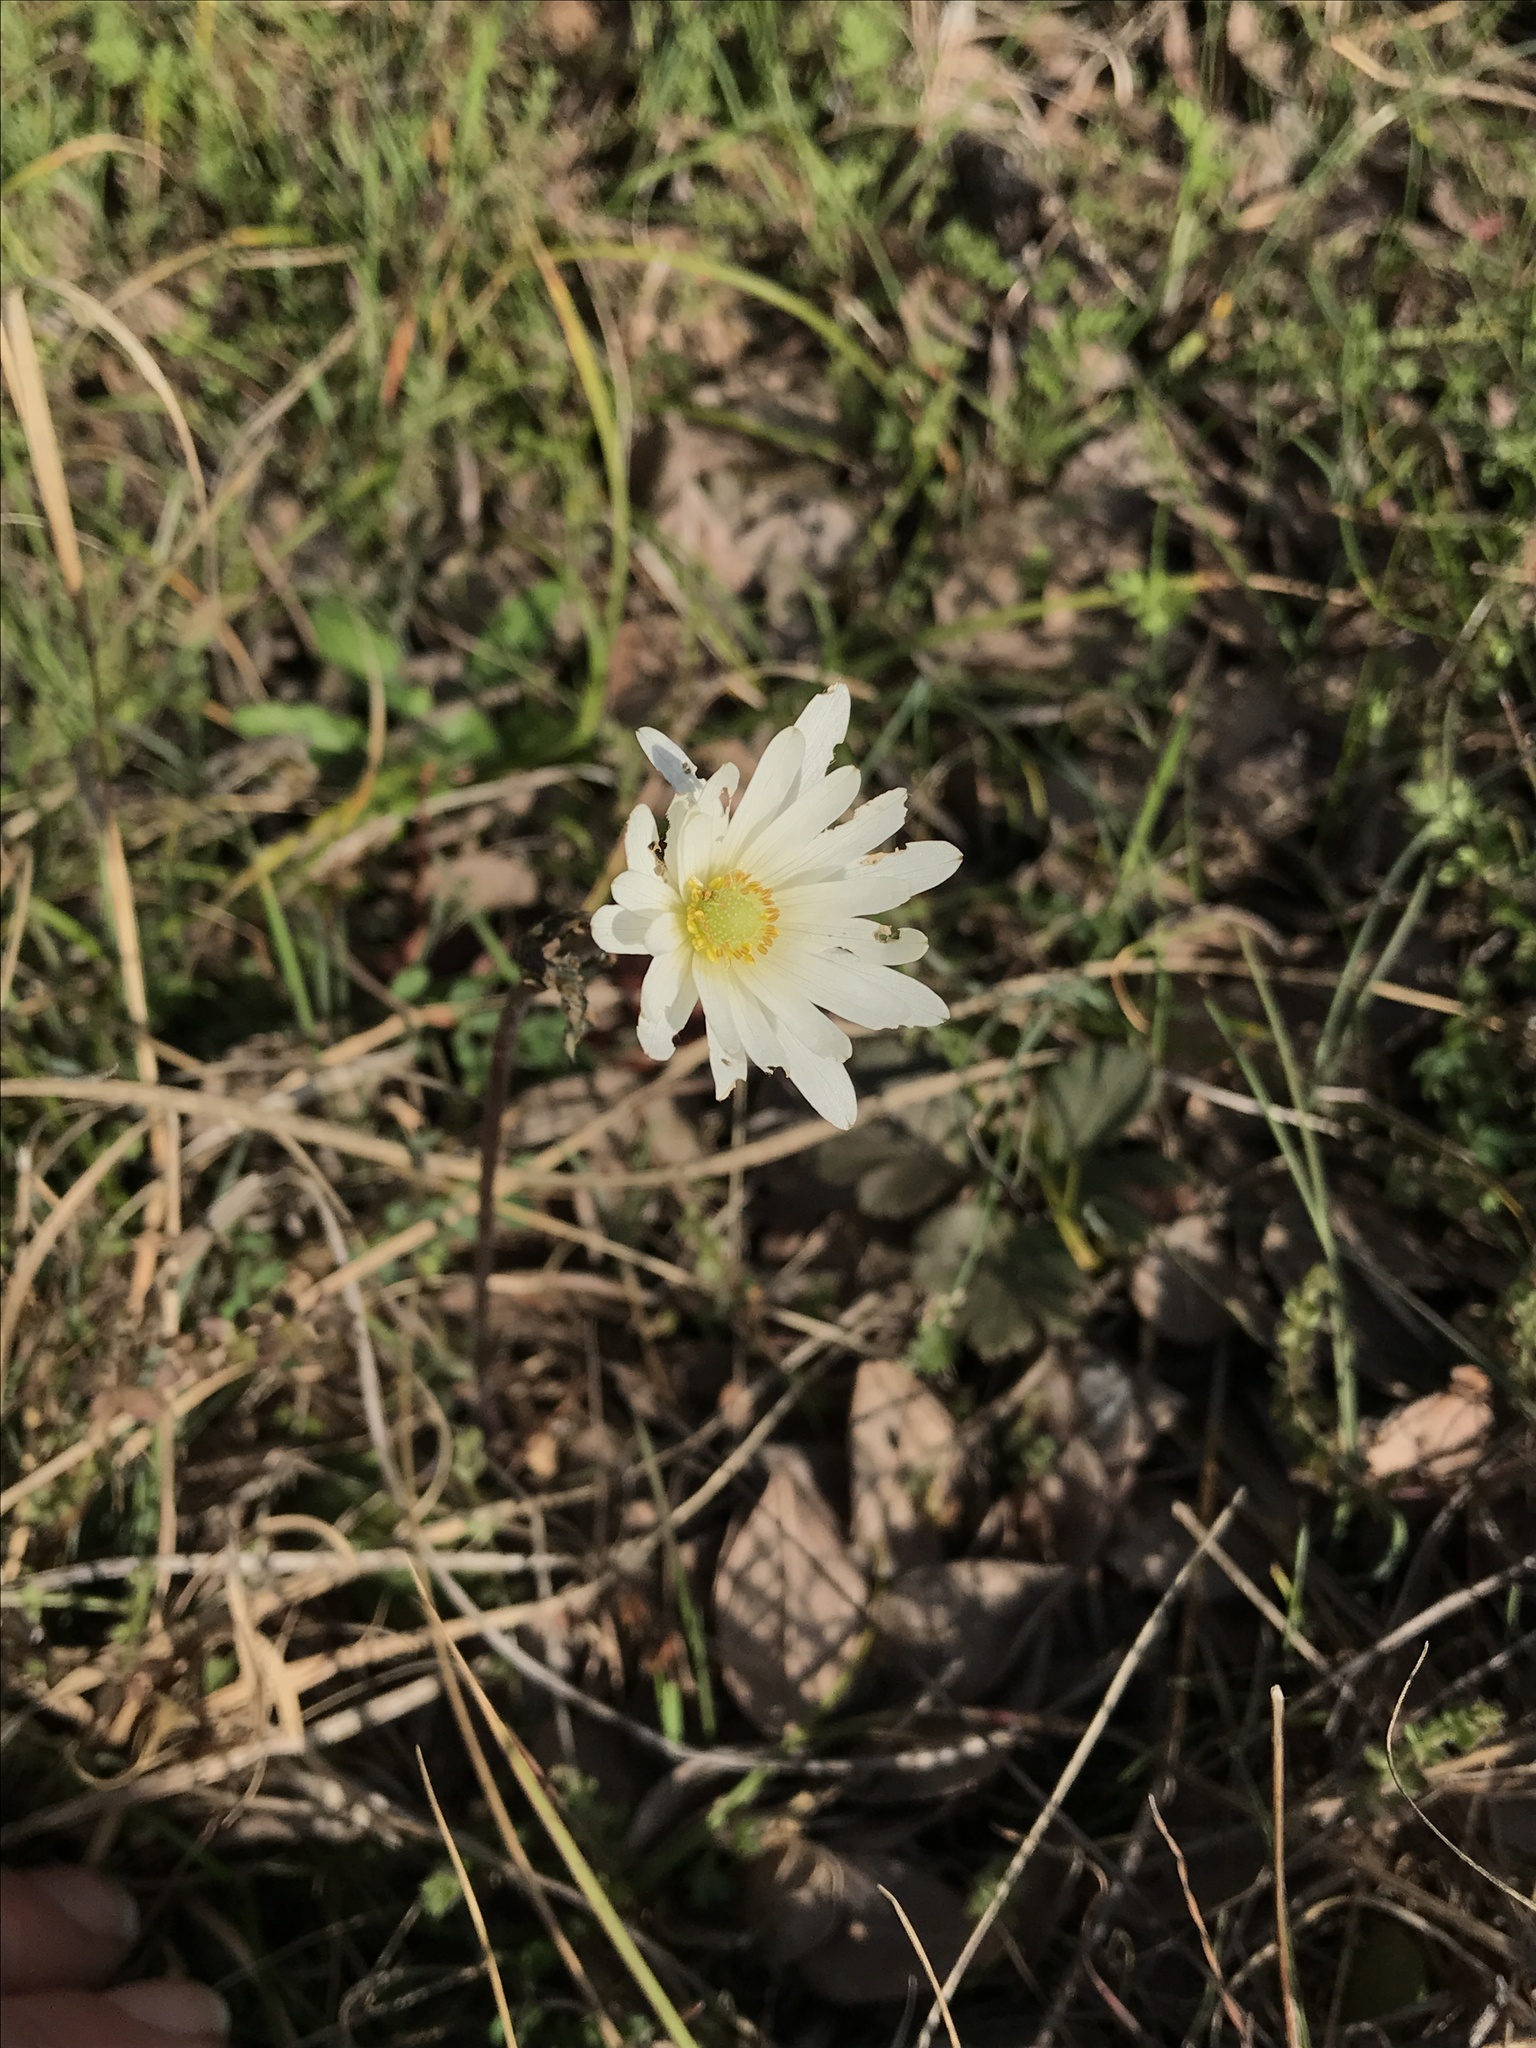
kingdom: Plantae
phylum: Tracheophyta
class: Magnoliopsida
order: Ranunculales
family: Ranunculaceae
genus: Anemone
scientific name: Anemone berlandieri
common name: Ten-petal anemone
